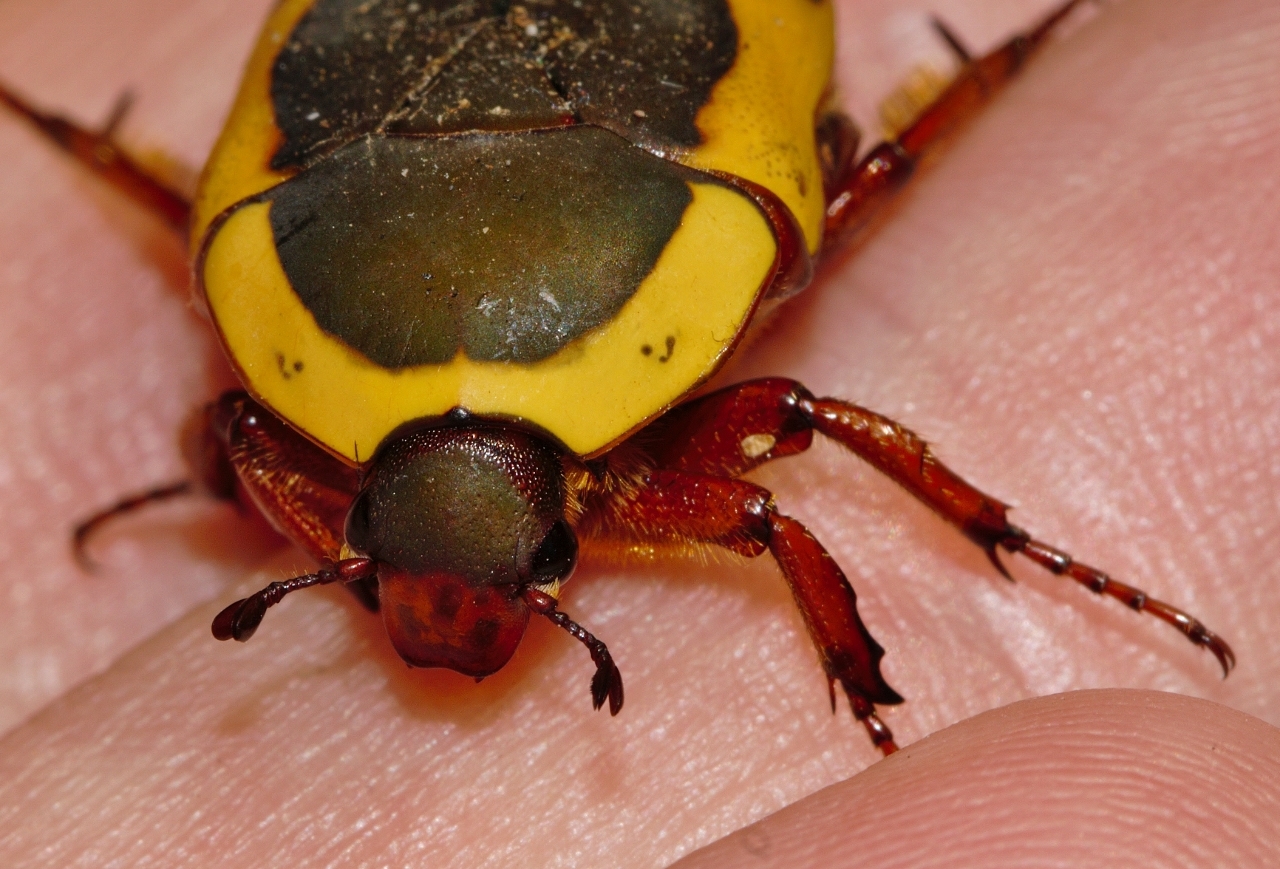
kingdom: Animalia
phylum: Arthropoda
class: Insecta
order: Coleoptera
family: Scarabaeidae
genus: Marmylida
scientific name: Marmylida impressa
